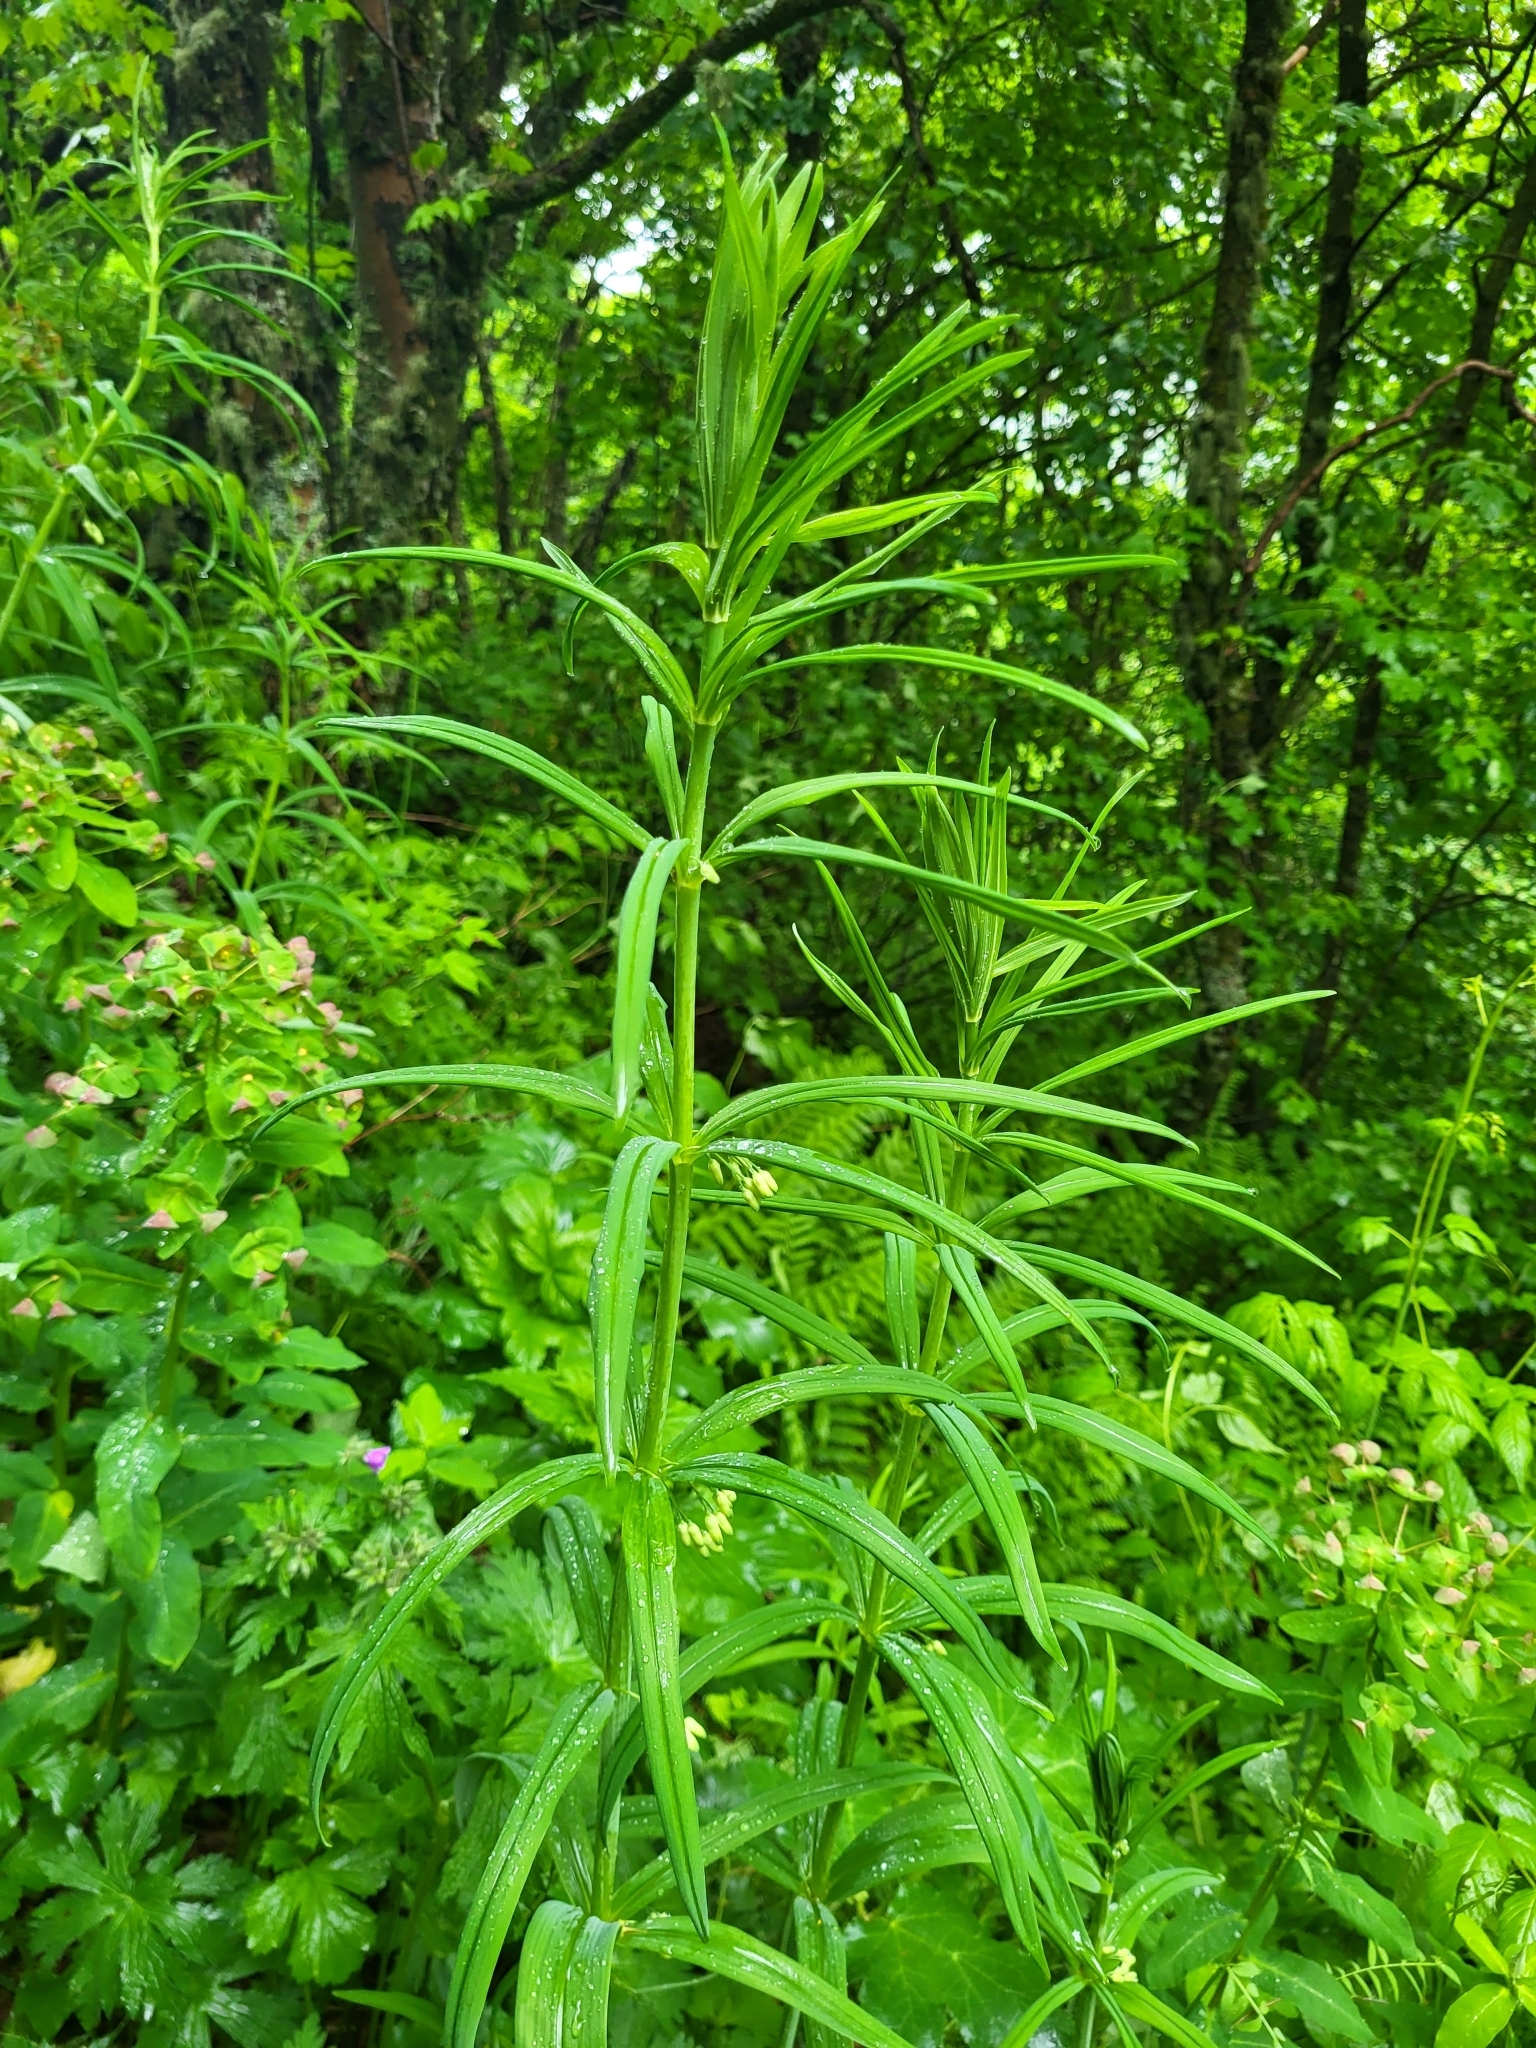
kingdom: Plantae
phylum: Tracheophyta
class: Liliopsida
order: Asparagales
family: Asparagaceae
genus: Polygonatum
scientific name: Polygonatum verticillatum
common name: Whorled solomon's-seal
